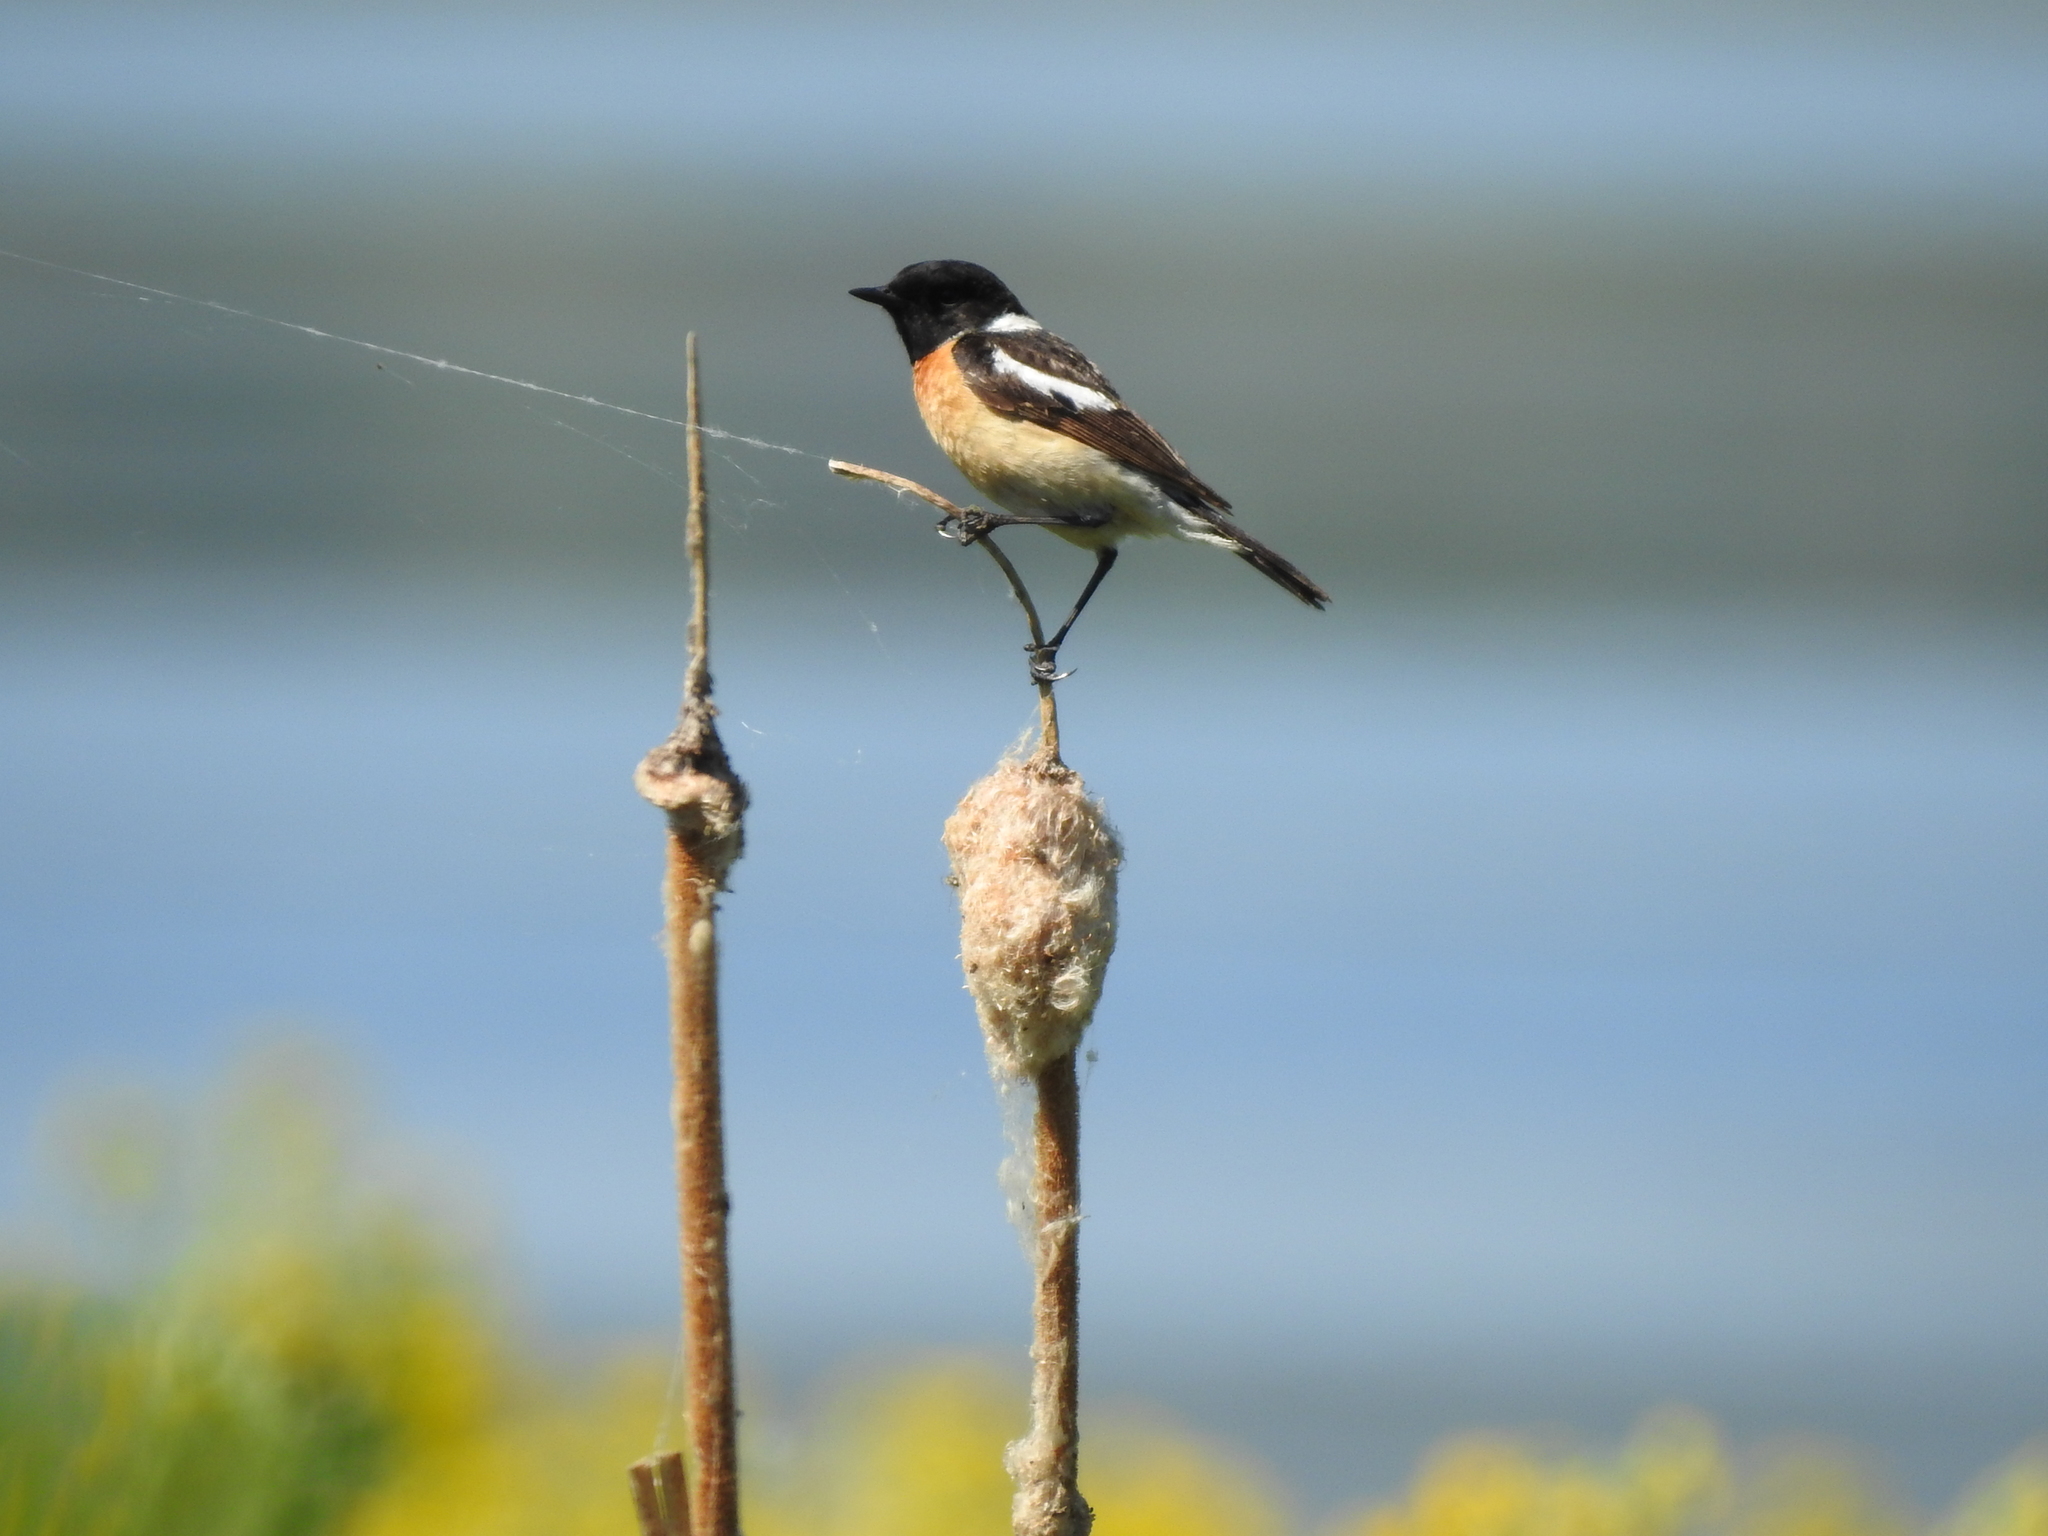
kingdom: Animalia
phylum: Chordata
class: Aves
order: Passeriformes
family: Muscicapidae
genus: Saxicola
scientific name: Saxicola maurus
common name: Siberian stonechat
